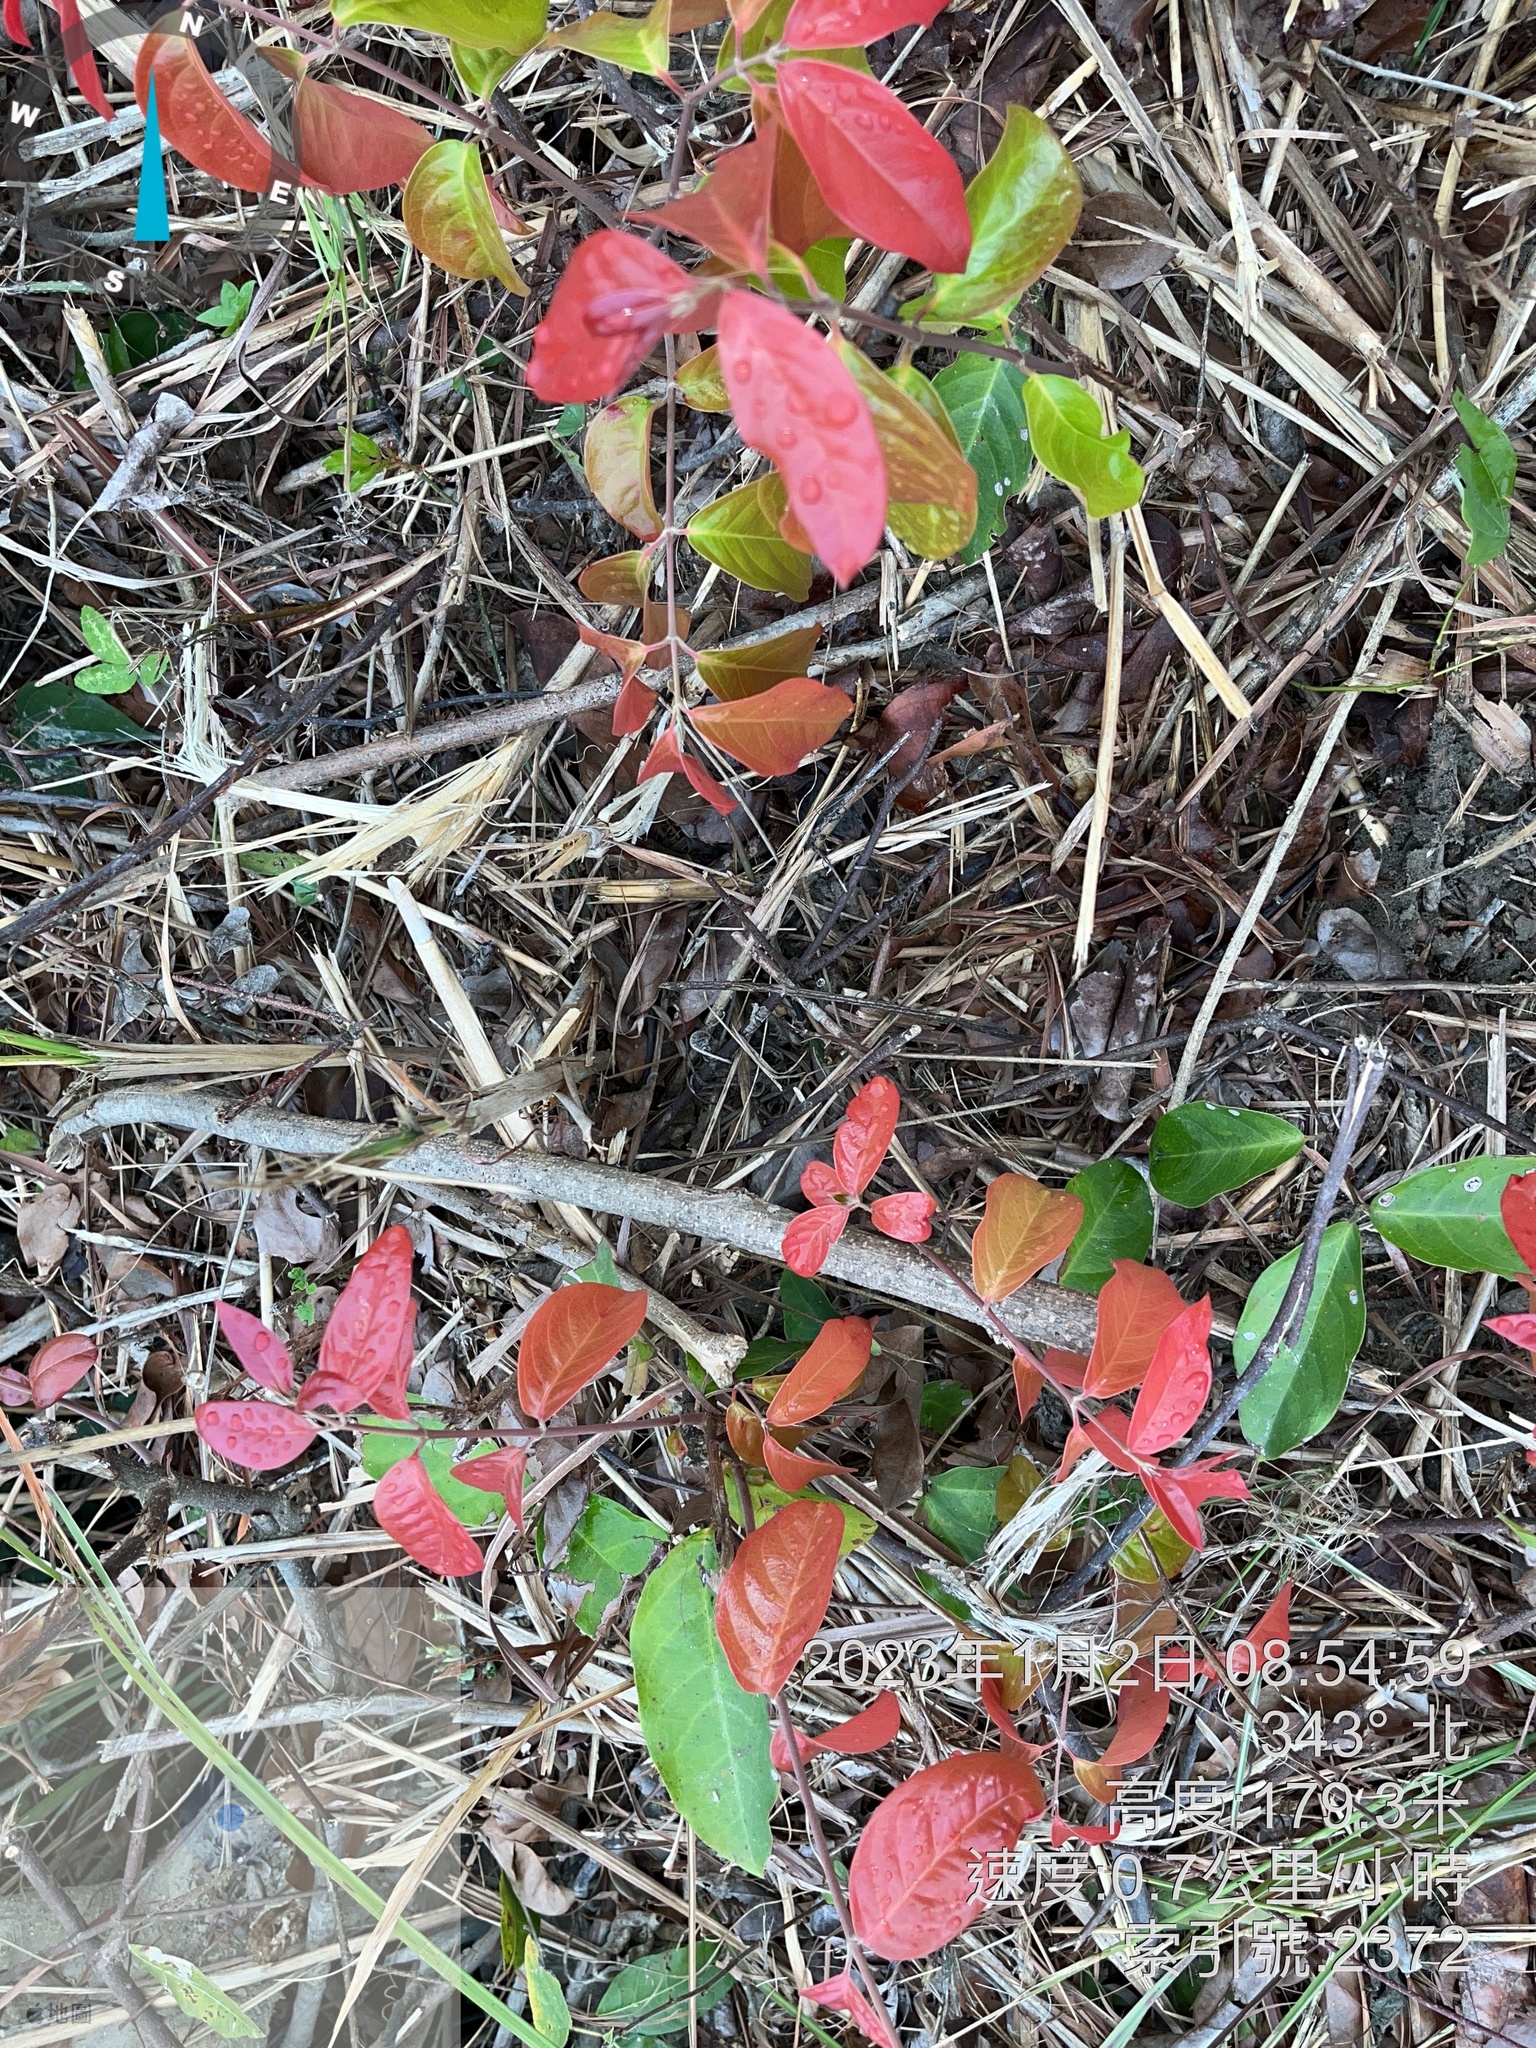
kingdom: Plantae
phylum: Tracheophyta
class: Magnoliopsida
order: Malpighiales
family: Malpighiaceae
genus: Hiptage
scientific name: Hiptage benghalensis
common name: Hiptage
